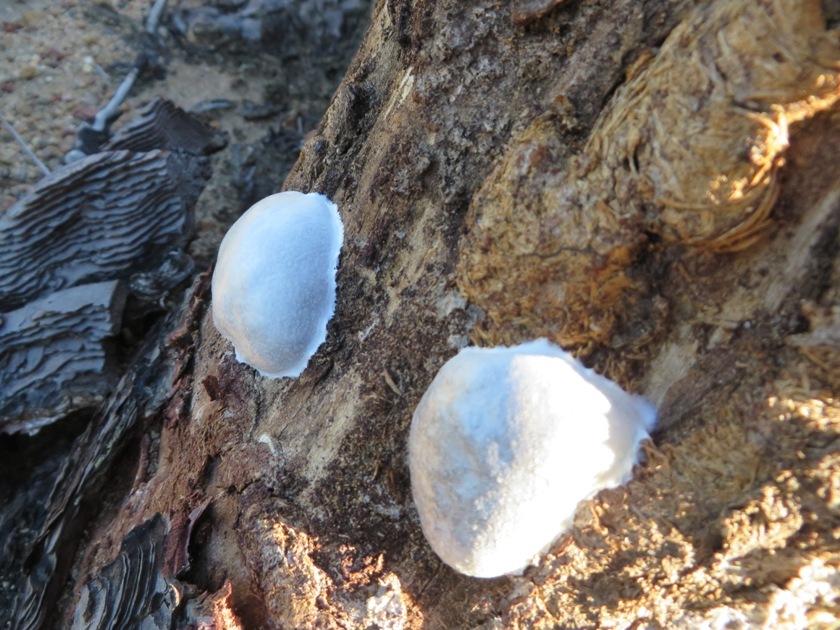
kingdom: Protozoa
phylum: Mycetozoa
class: Myxomycetes
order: Cribrariales
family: Tubiferaceae
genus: Reticularia
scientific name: Reticularia lycoperdon
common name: False puffball
